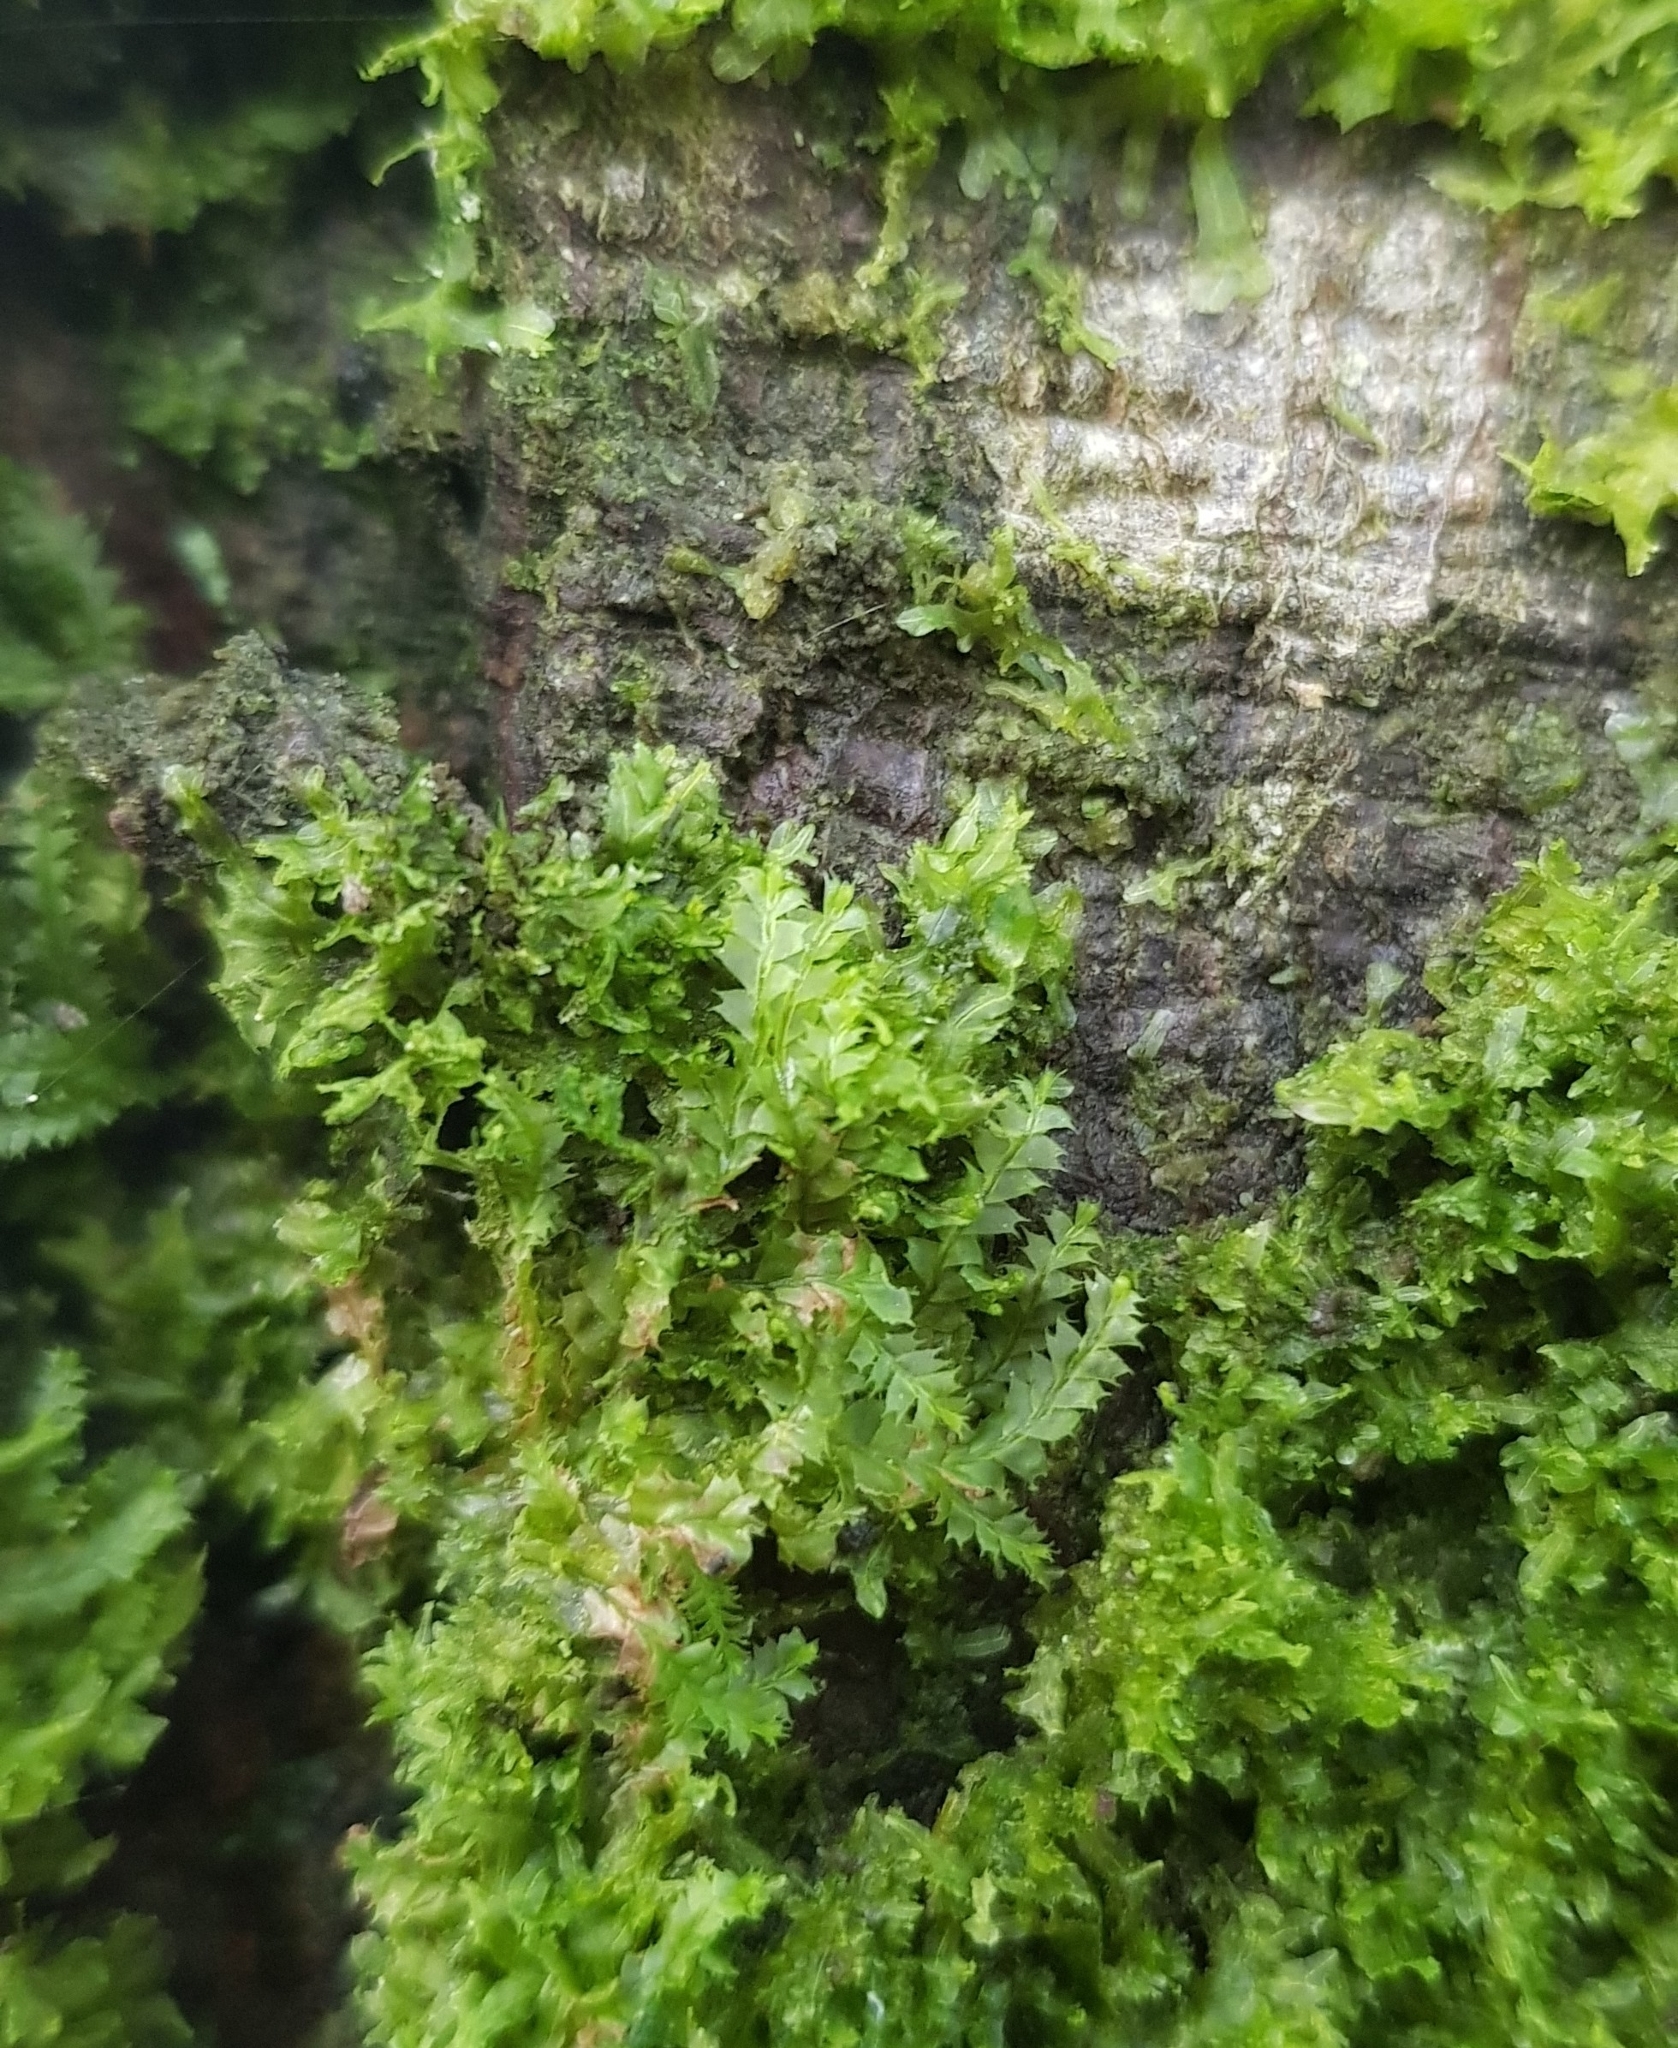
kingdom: Plantae
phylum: Marchantiophyta
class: Jungermanniopsida
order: Jungermanniales
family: Lophocoleaceae
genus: Lophocolea
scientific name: Lophocolea bidentata
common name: Bifid crestwort
